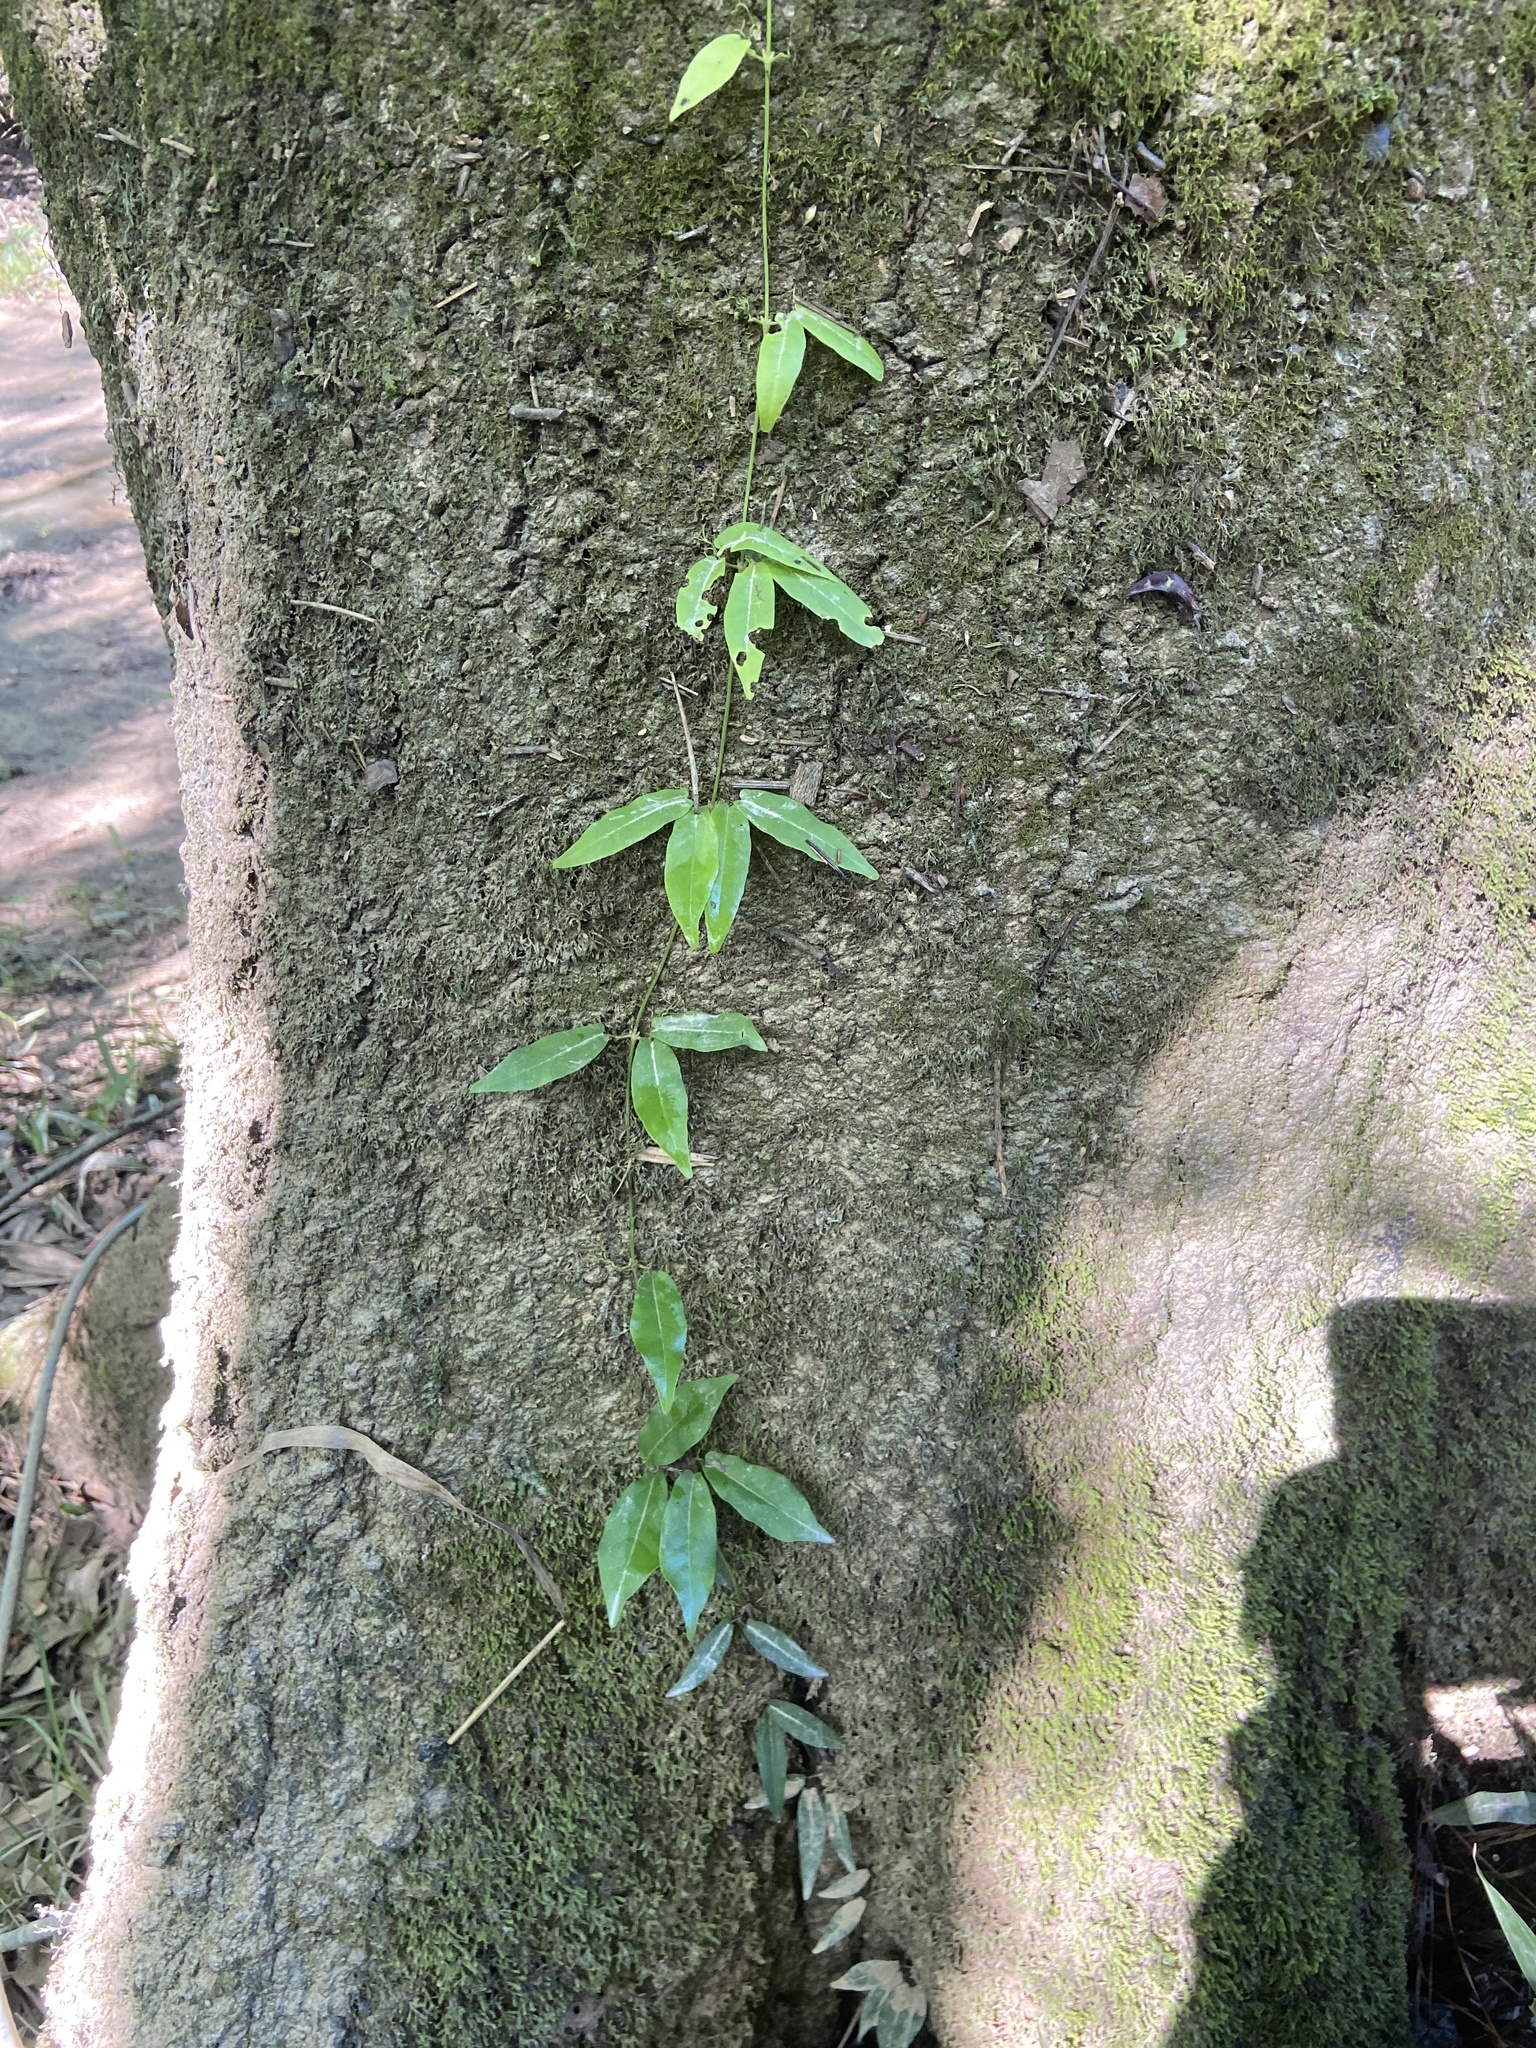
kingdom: Plantae
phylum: Tracheophyta
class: Magnoliopsida
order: Lamiales
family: Bignoniaceae
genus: Bignonia
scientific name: Bignonia capreolata
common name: Crossvine
